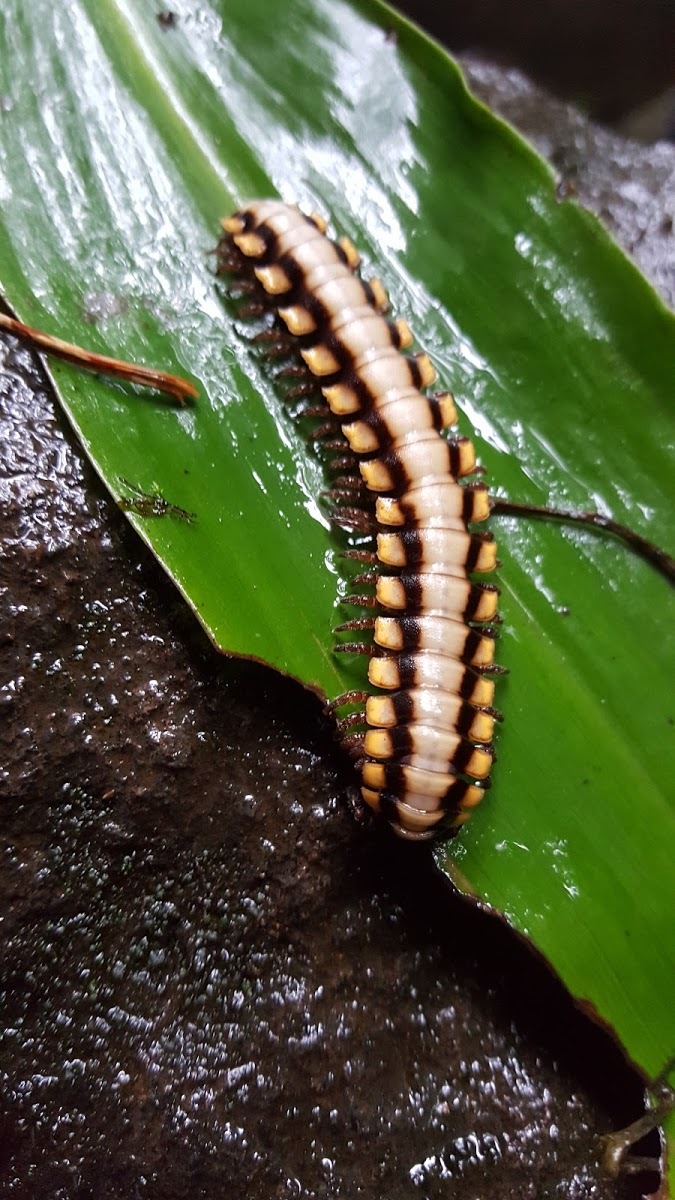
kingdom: Animalia
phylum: Arthropoda
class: Diplopoda
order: Polydesmida
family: Platyrhacidae
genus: Nyssodesmus
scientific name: Nyssodesmus python
